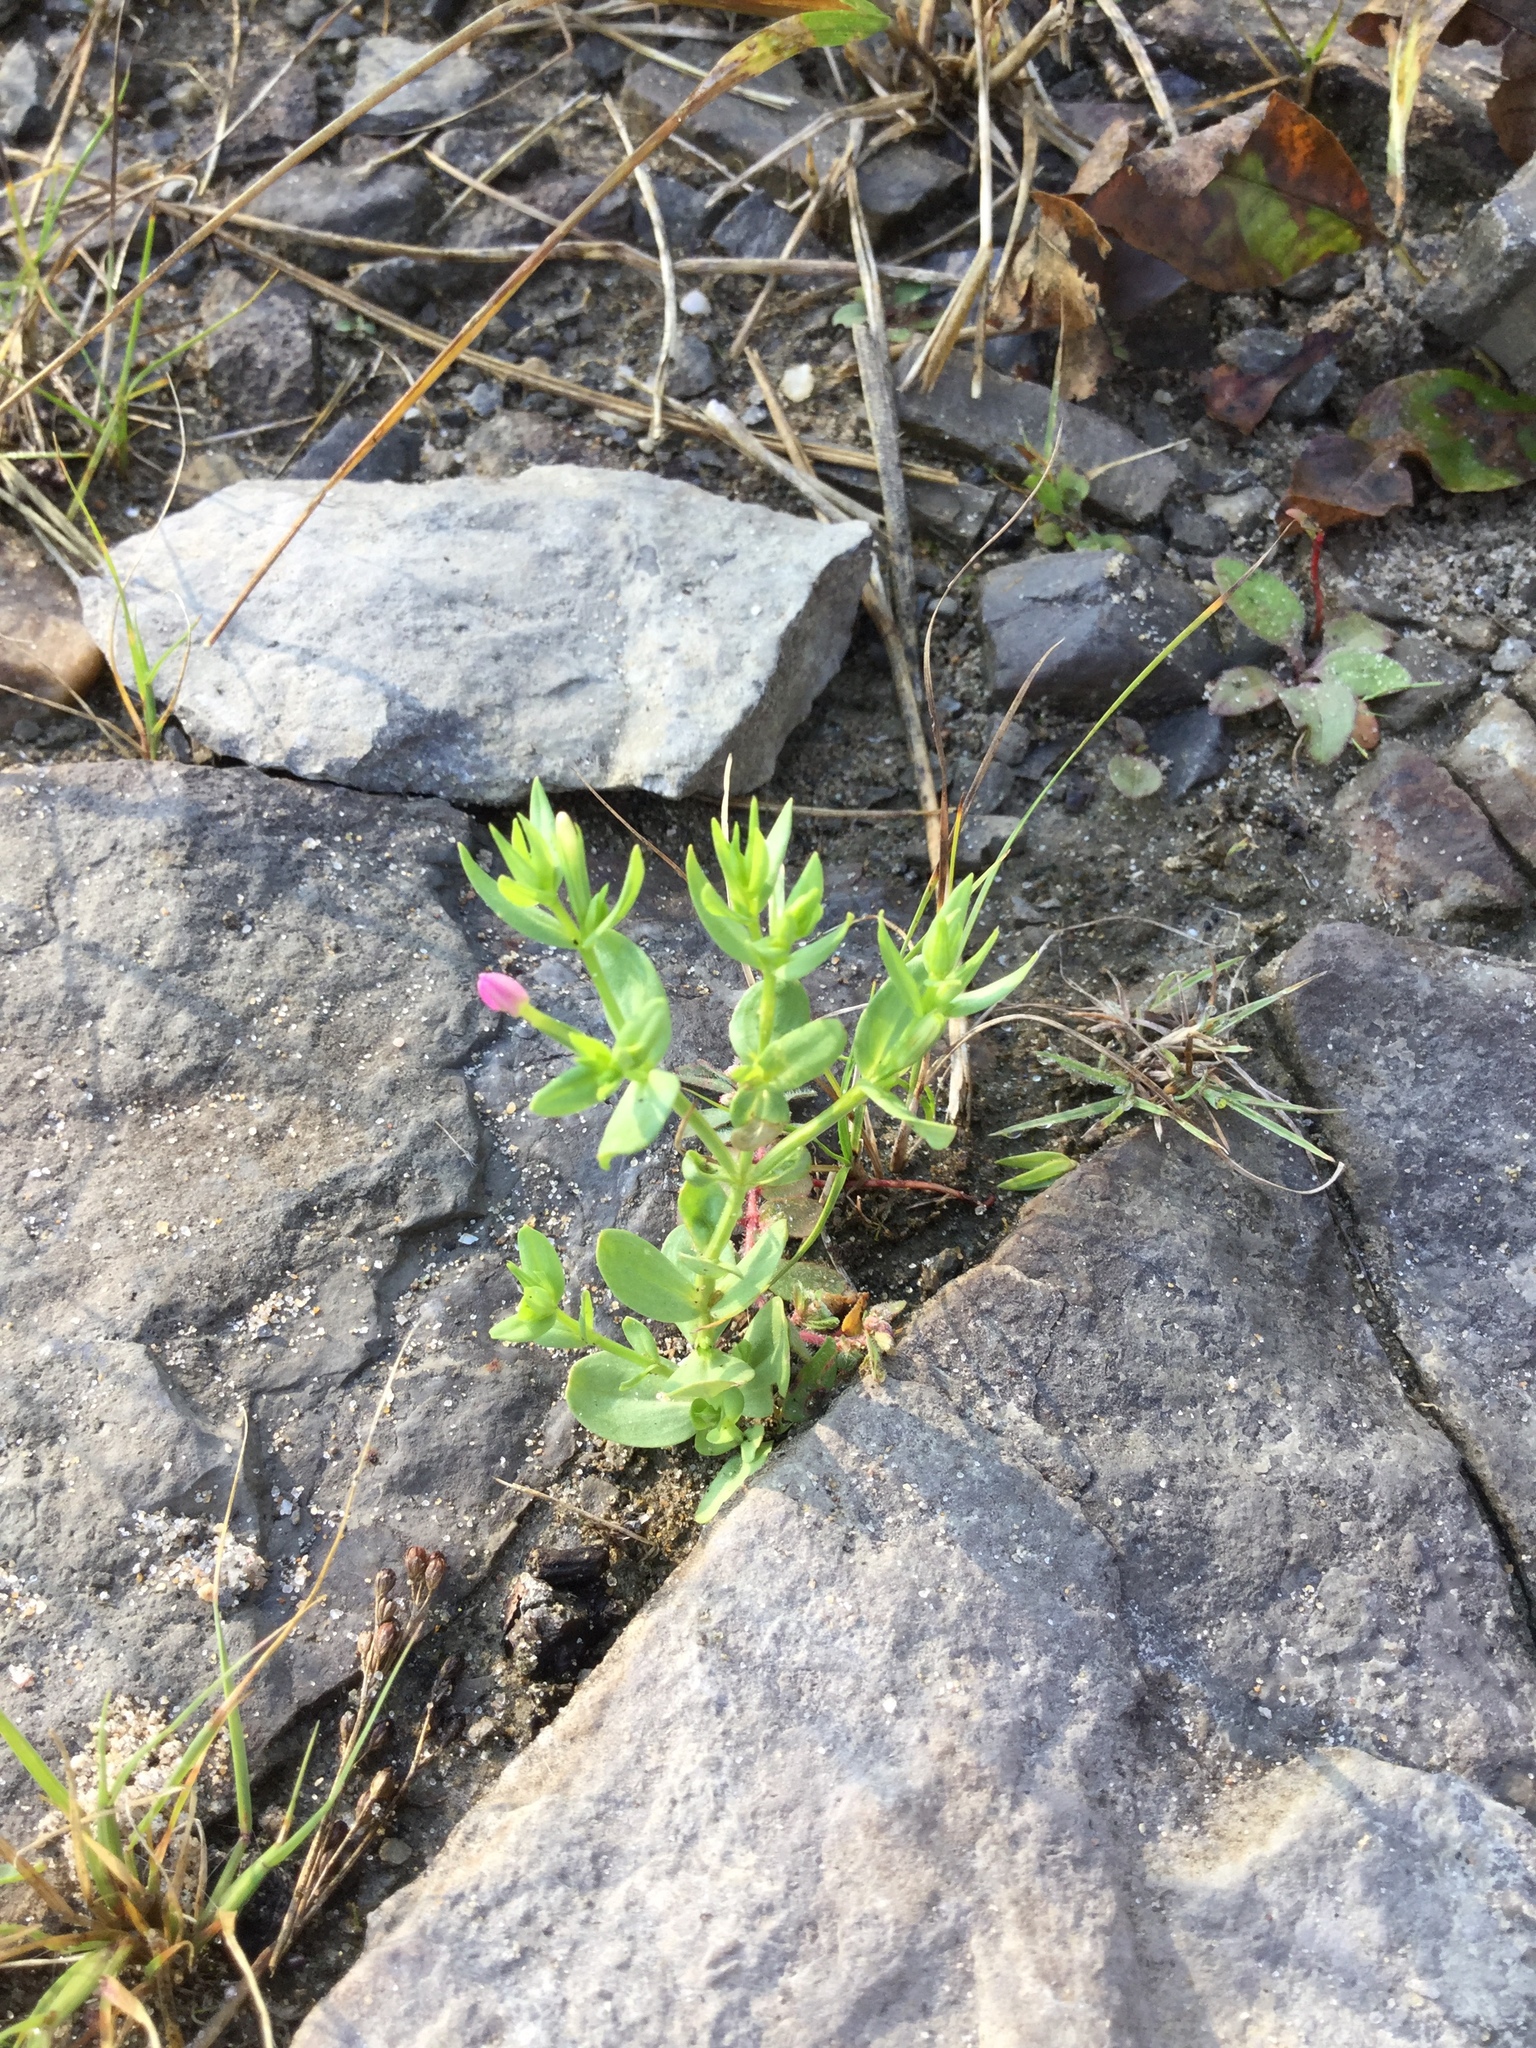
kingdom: Plantae
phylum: Tracheophyta
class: Magnoliopsida
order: Gentianales
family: Gentianaceae
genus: Centaurium
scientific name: Centaurium pulchellum
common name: Lesser centaury
